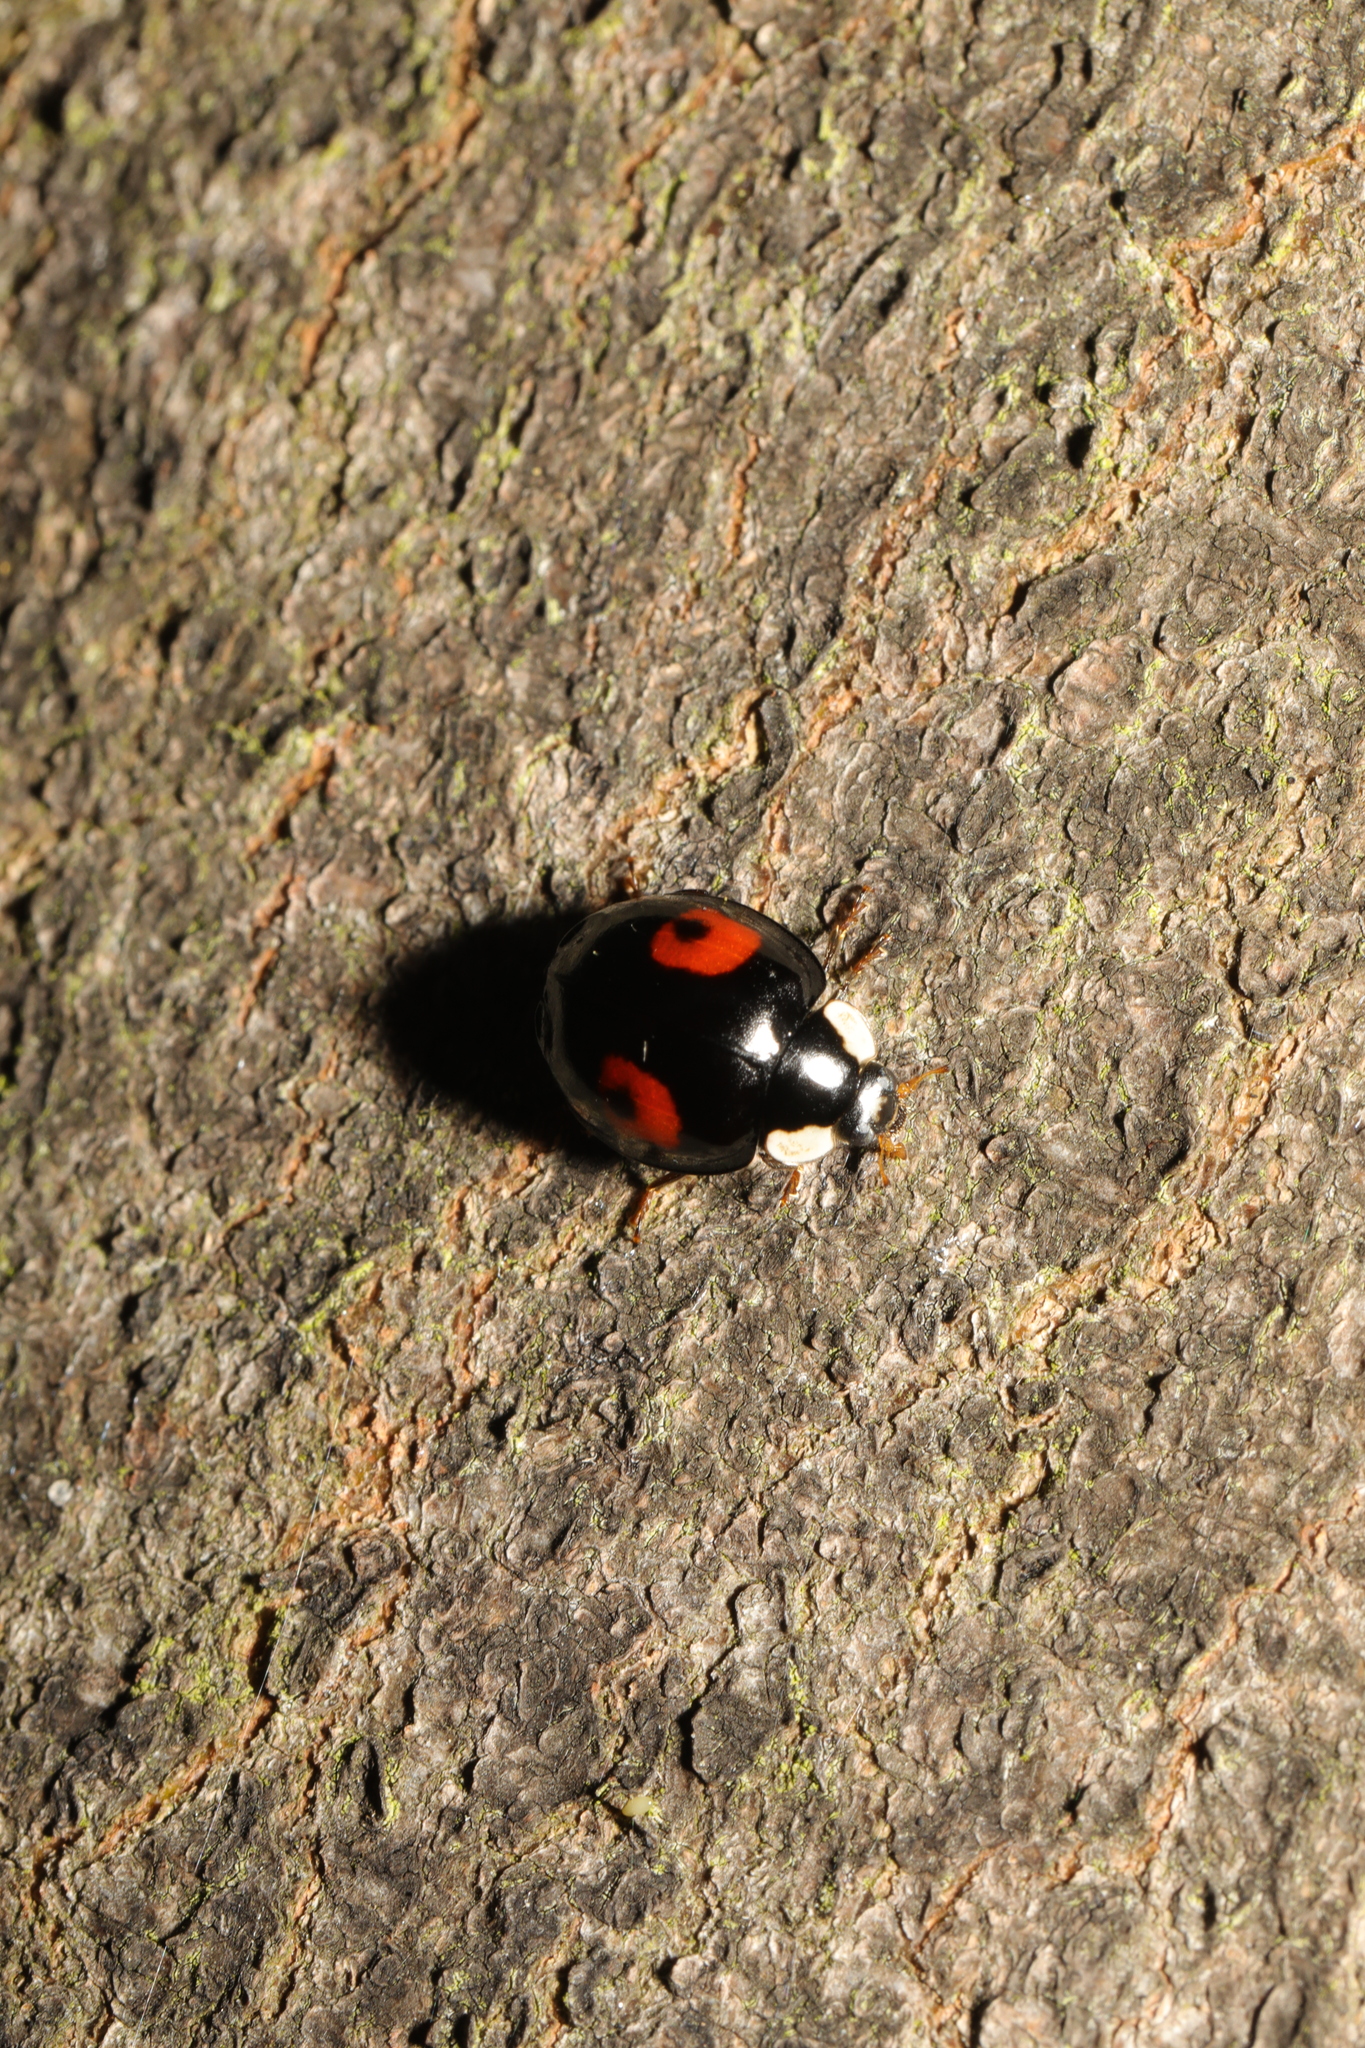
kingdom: Animalia
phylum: Arthropoda
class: Insecta
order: Coleoptera
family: Coccinellidae
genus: Harmonia
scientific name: Harmonia axyridis
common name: Harlequin ladybird
